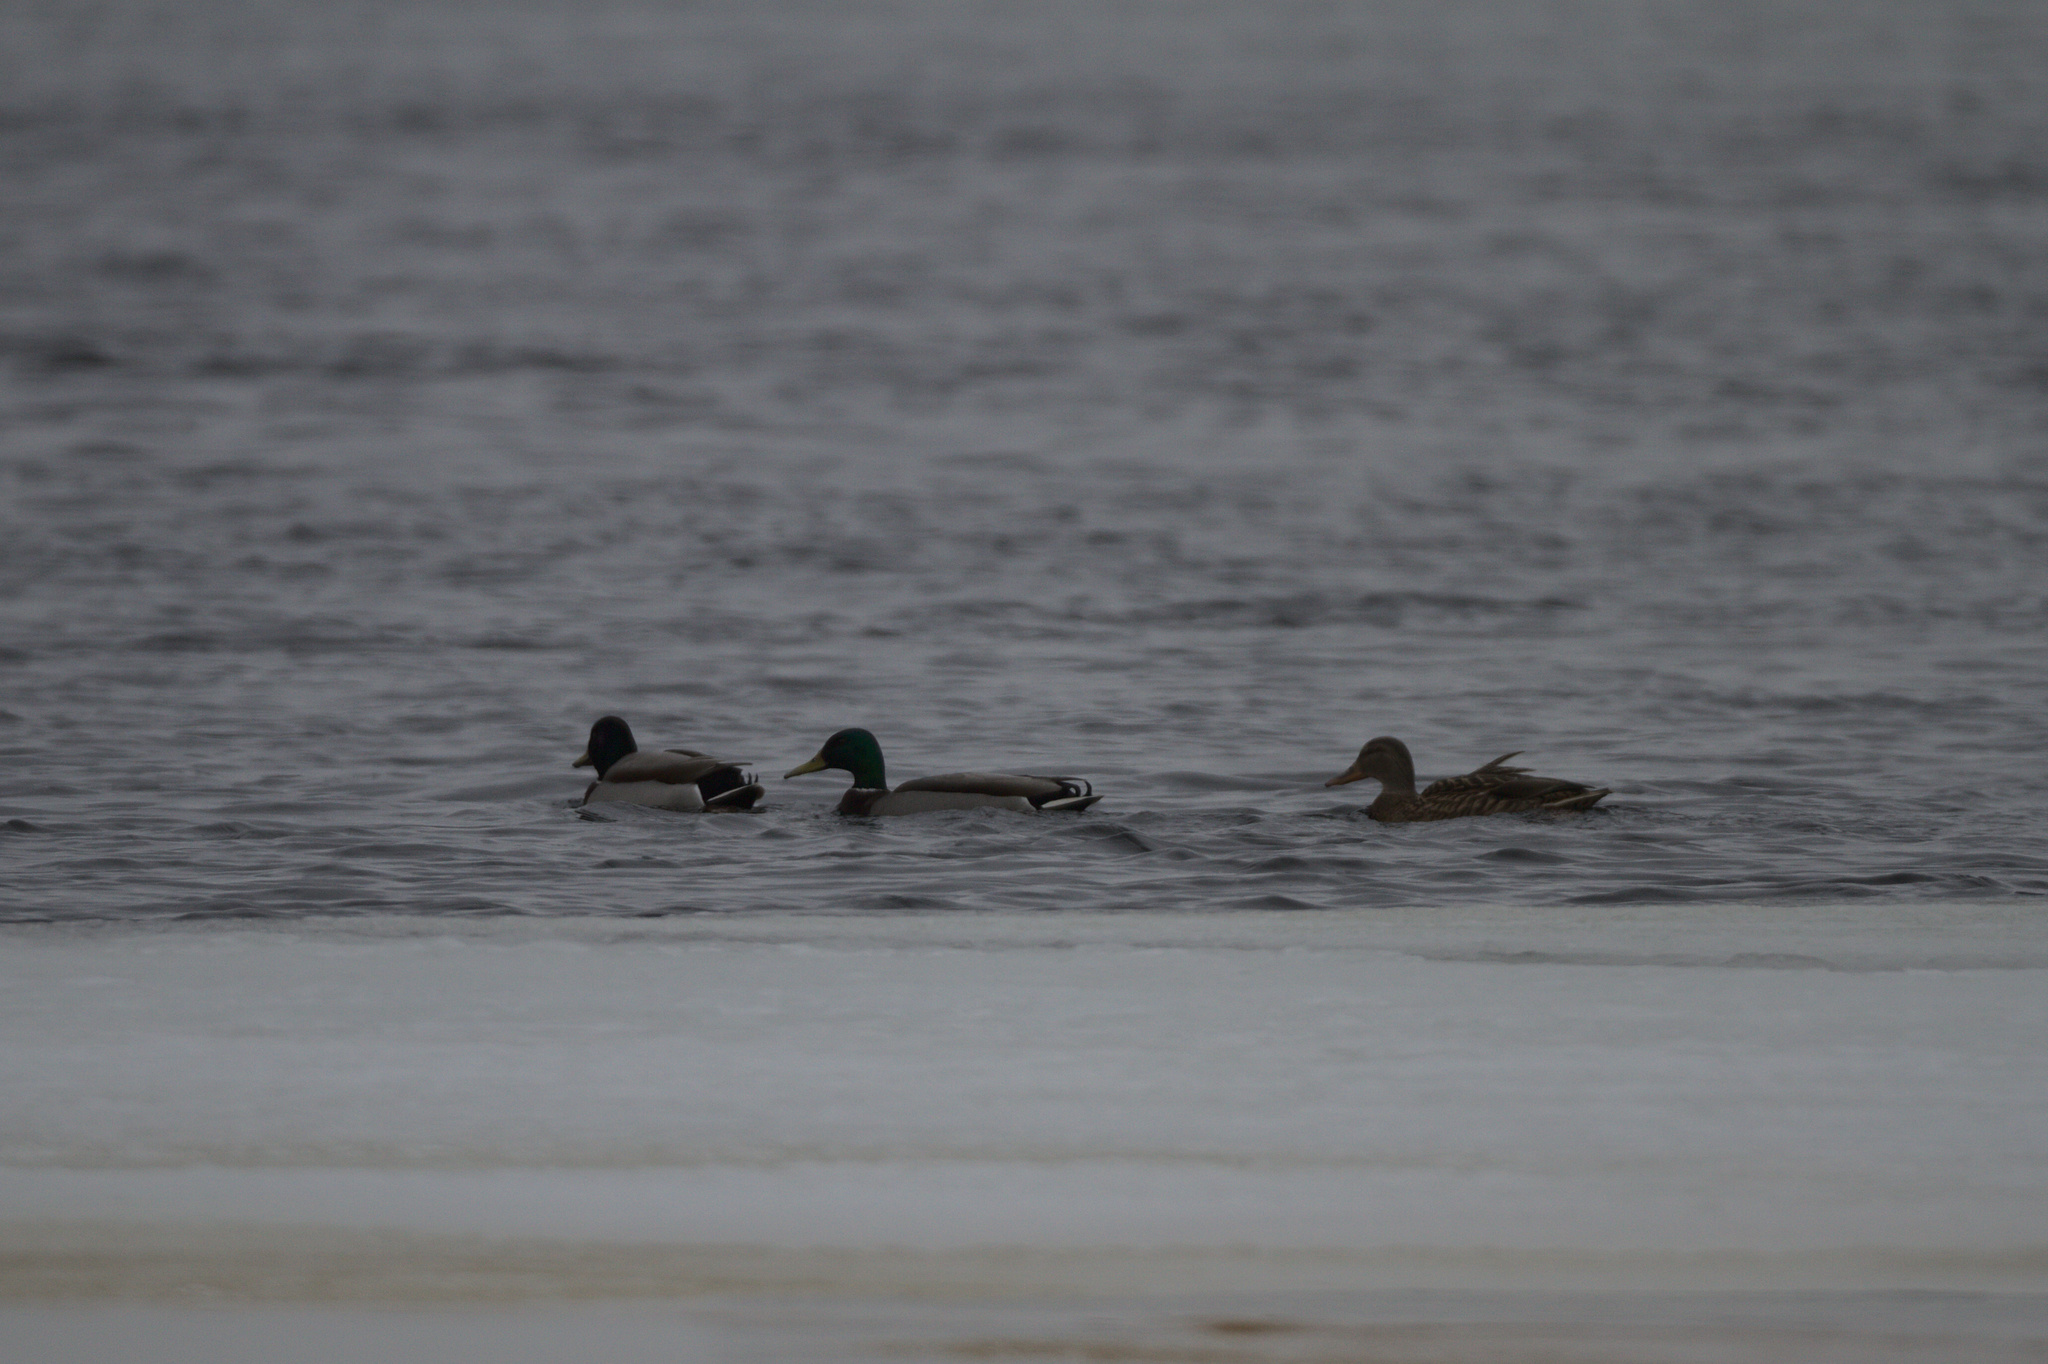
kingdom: Animalia
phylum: Chordata
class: Aves
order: Anseriformes
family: Anatidae
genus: Anas
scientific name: Anas platyrhynchos
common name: Mallard
